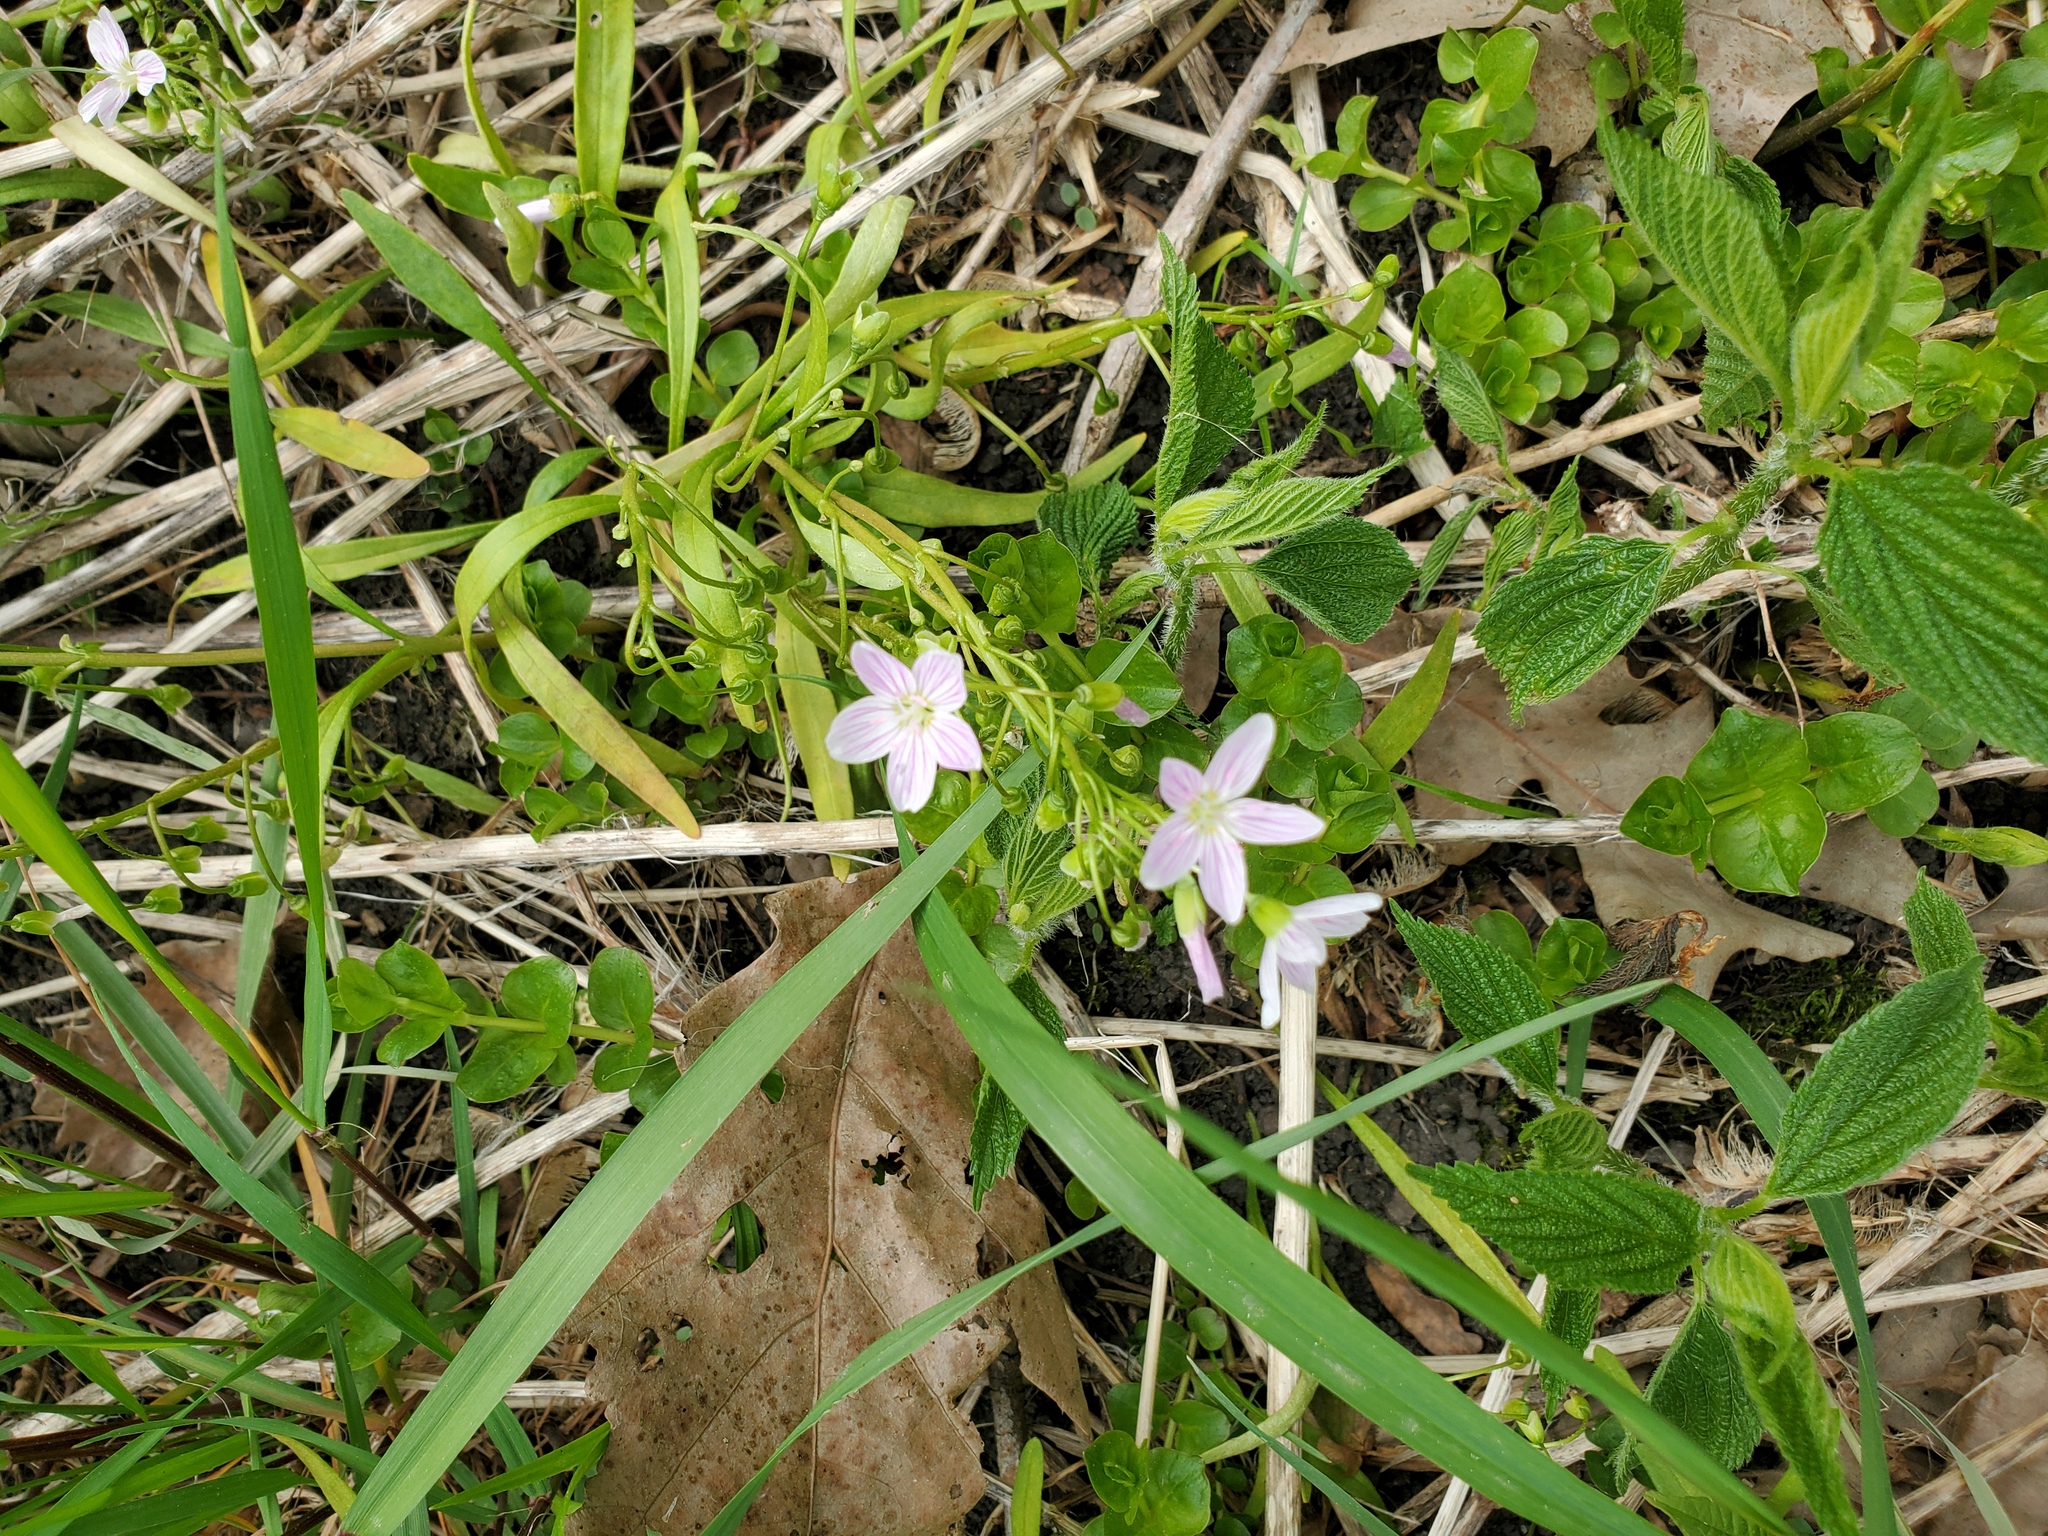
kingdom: Plantae
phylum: Tracheophyta
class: Magnoliopsida
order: Caryophyllales
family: Montiaceae
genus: Claytonia
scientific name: Claytonia virginica
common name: Virginia springbeauty
